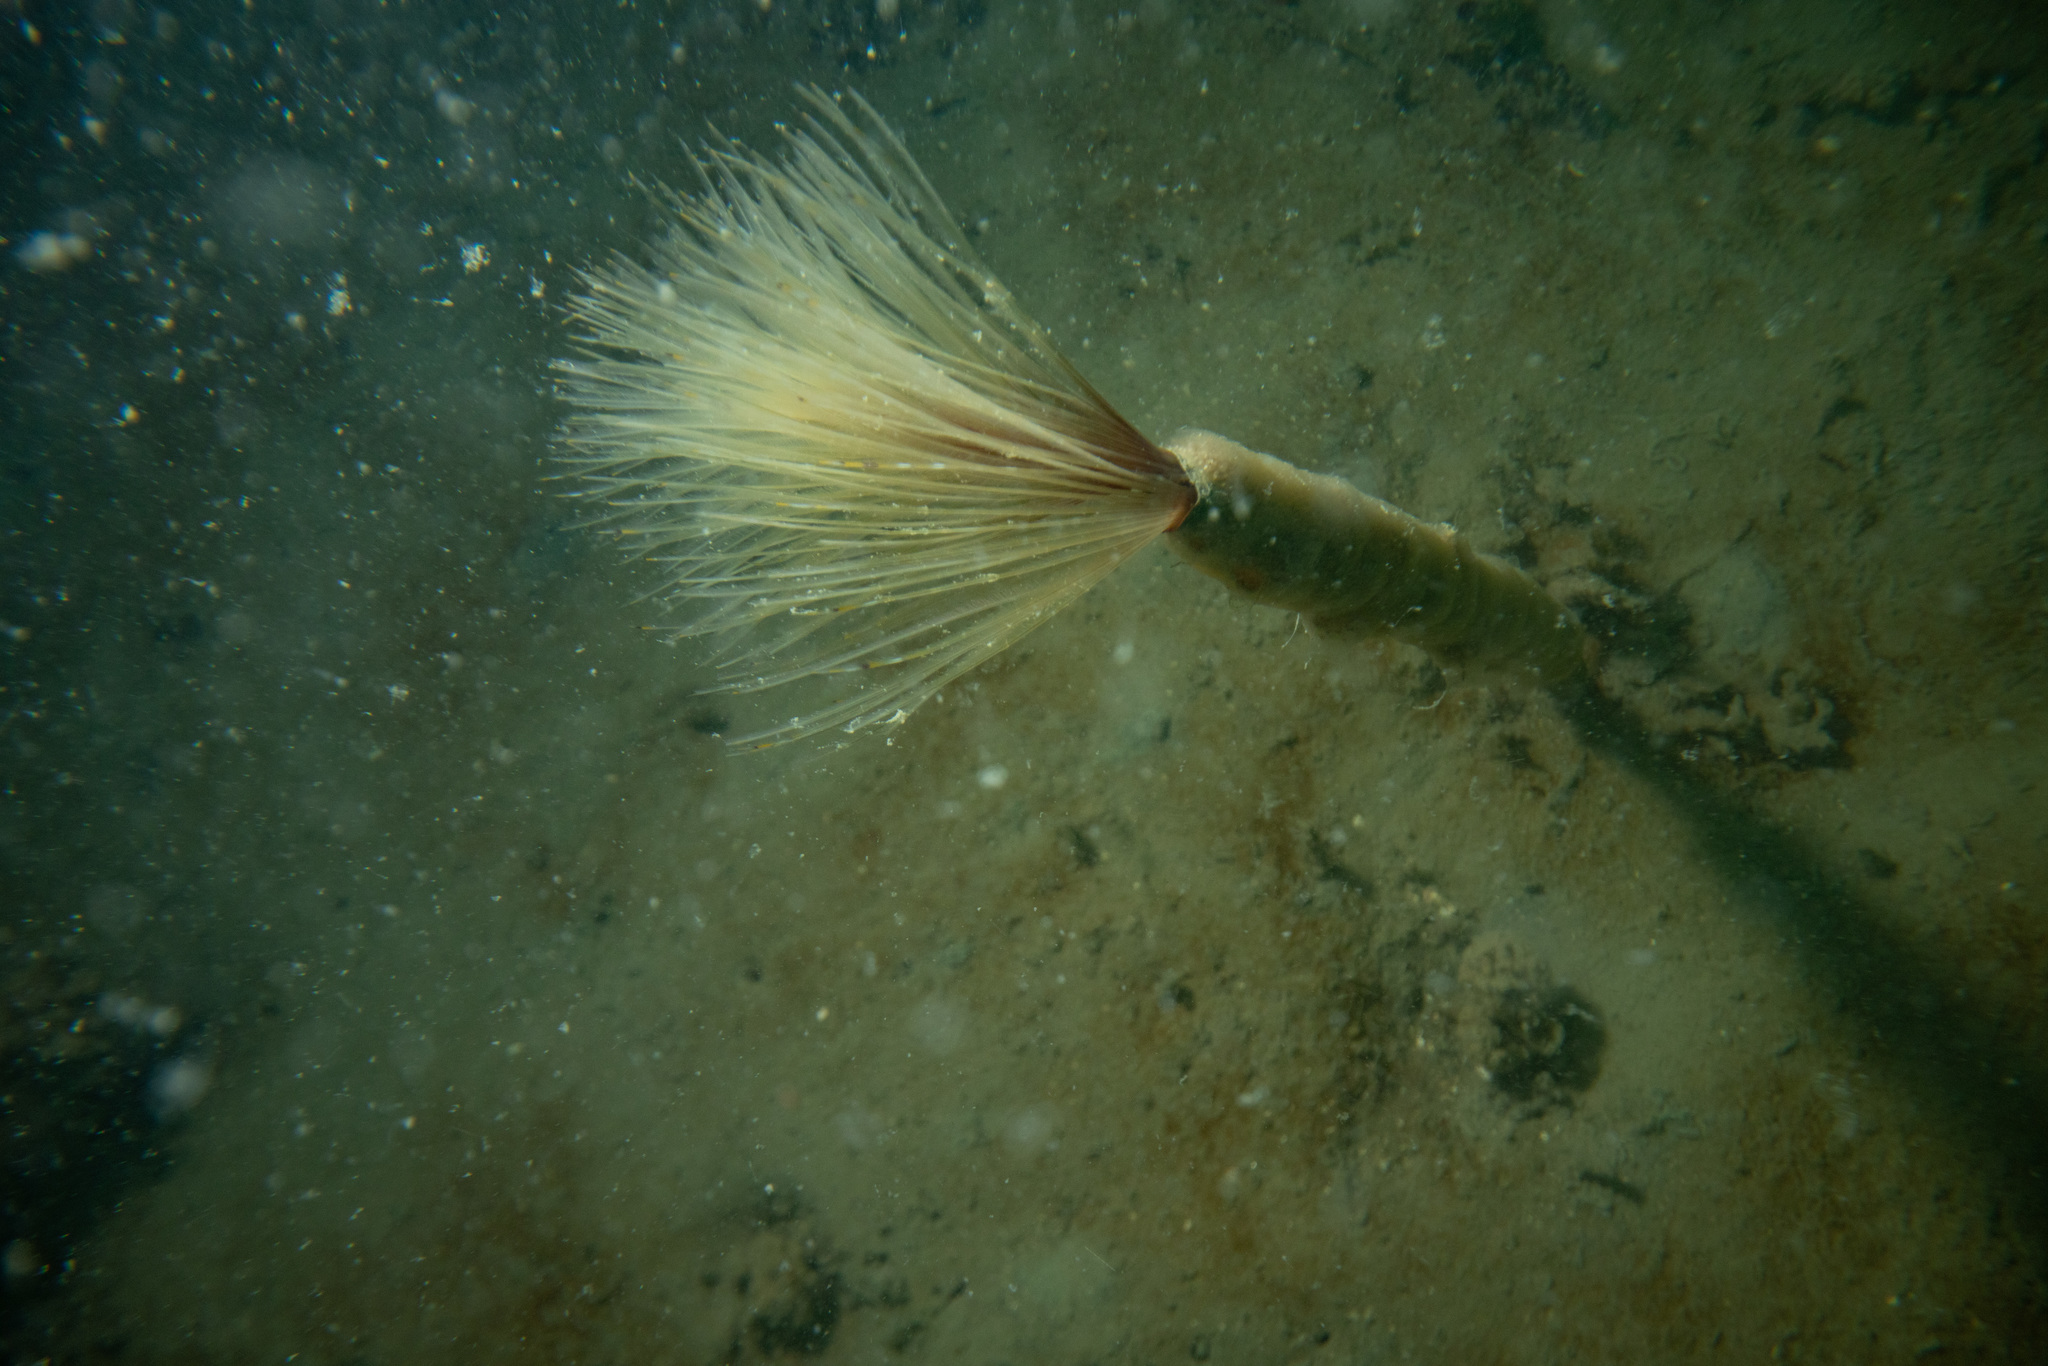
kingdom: Animalia
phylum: Annelida
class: Polychaeta
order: Sabellida
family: Sabellidae
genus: Sabella
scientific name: Sabella spallanzanii
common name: Feather duster worm
